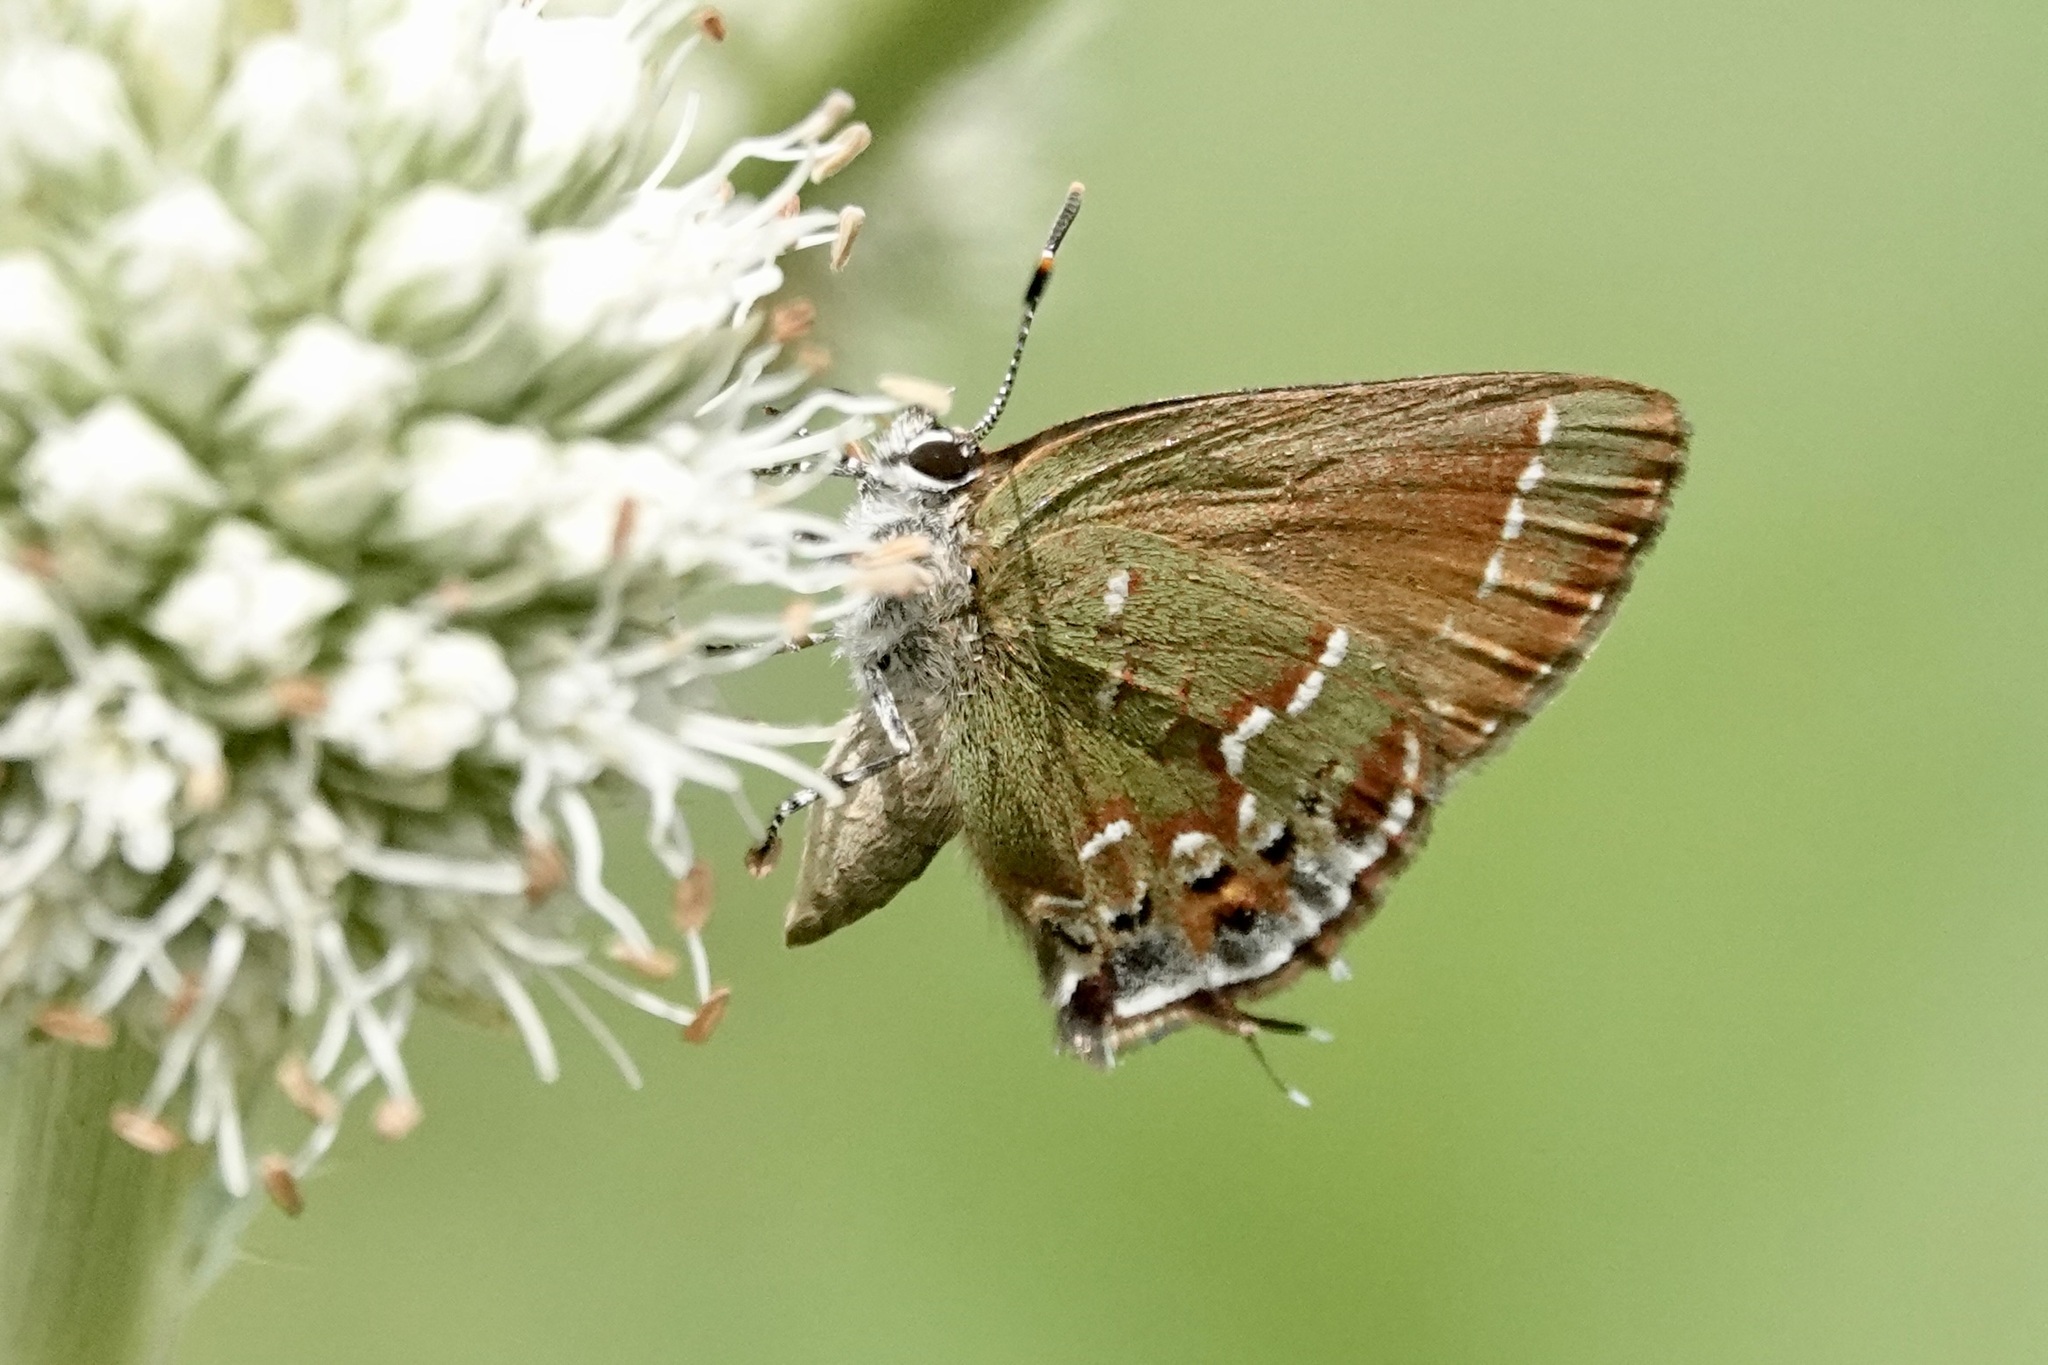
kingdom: Animalia
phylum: Arthropoda
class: Insecta
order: Lepidoptera
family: Lycaenidae
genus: Mitoura
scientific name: Mitoura gryneus
